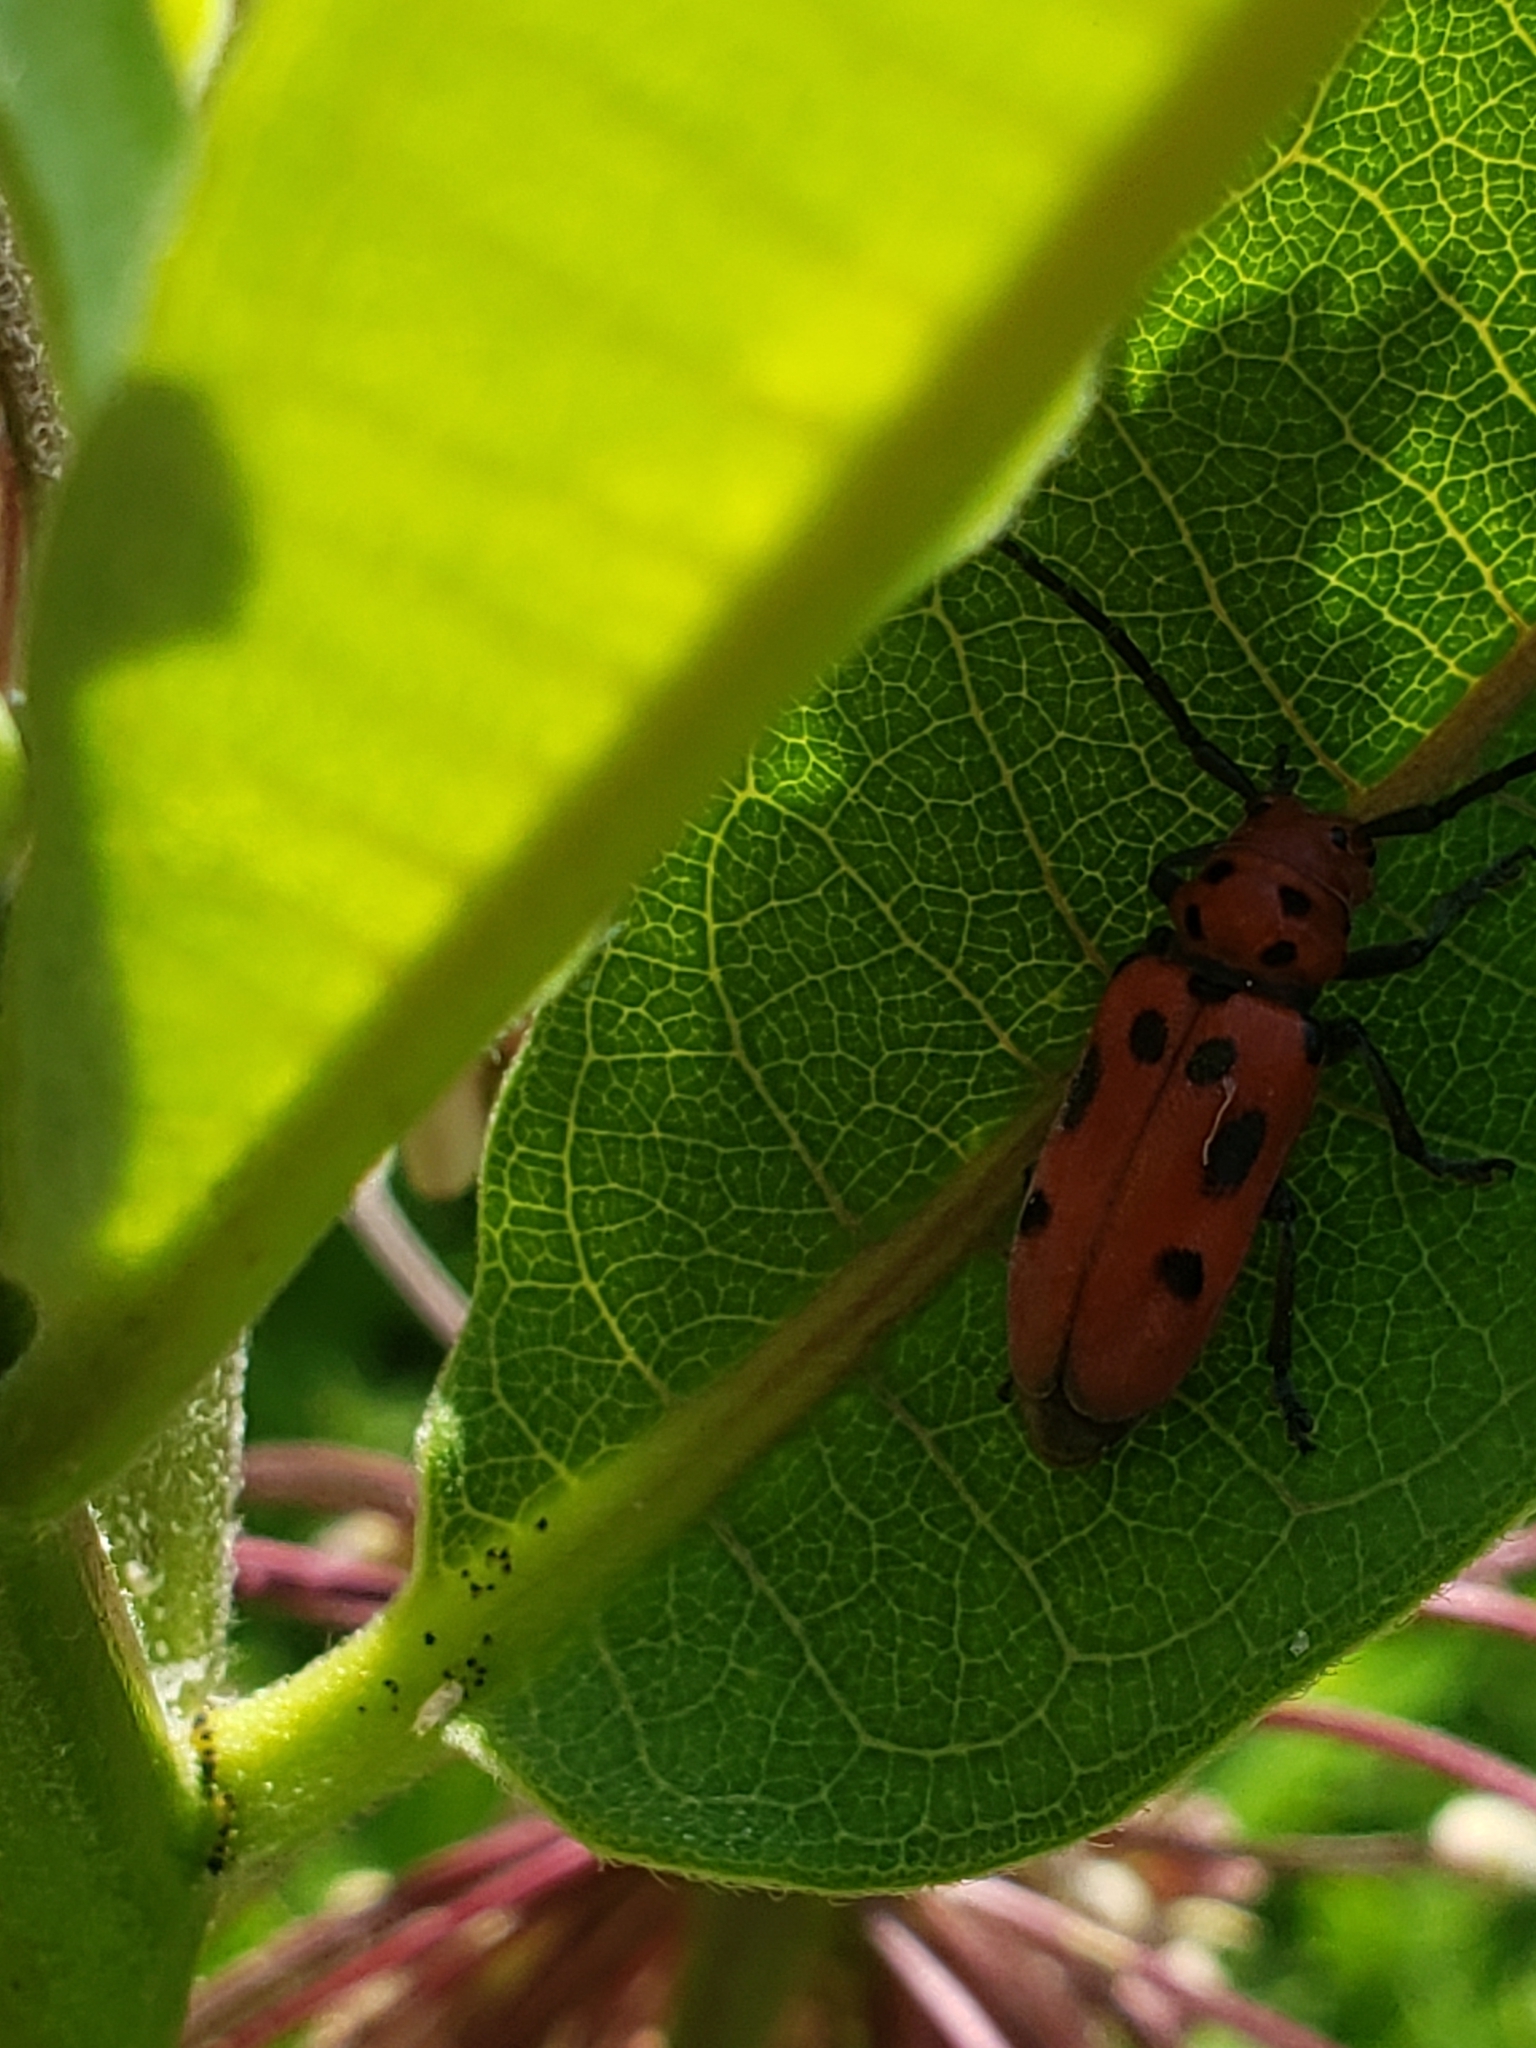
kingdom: Animalia
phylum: Arthropoda
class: Insecta
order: Coleoptera
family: Cerambycidae
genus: Tetraopes
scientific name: Tetraopes tetrophthalmus
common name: Red milkweed beetle
